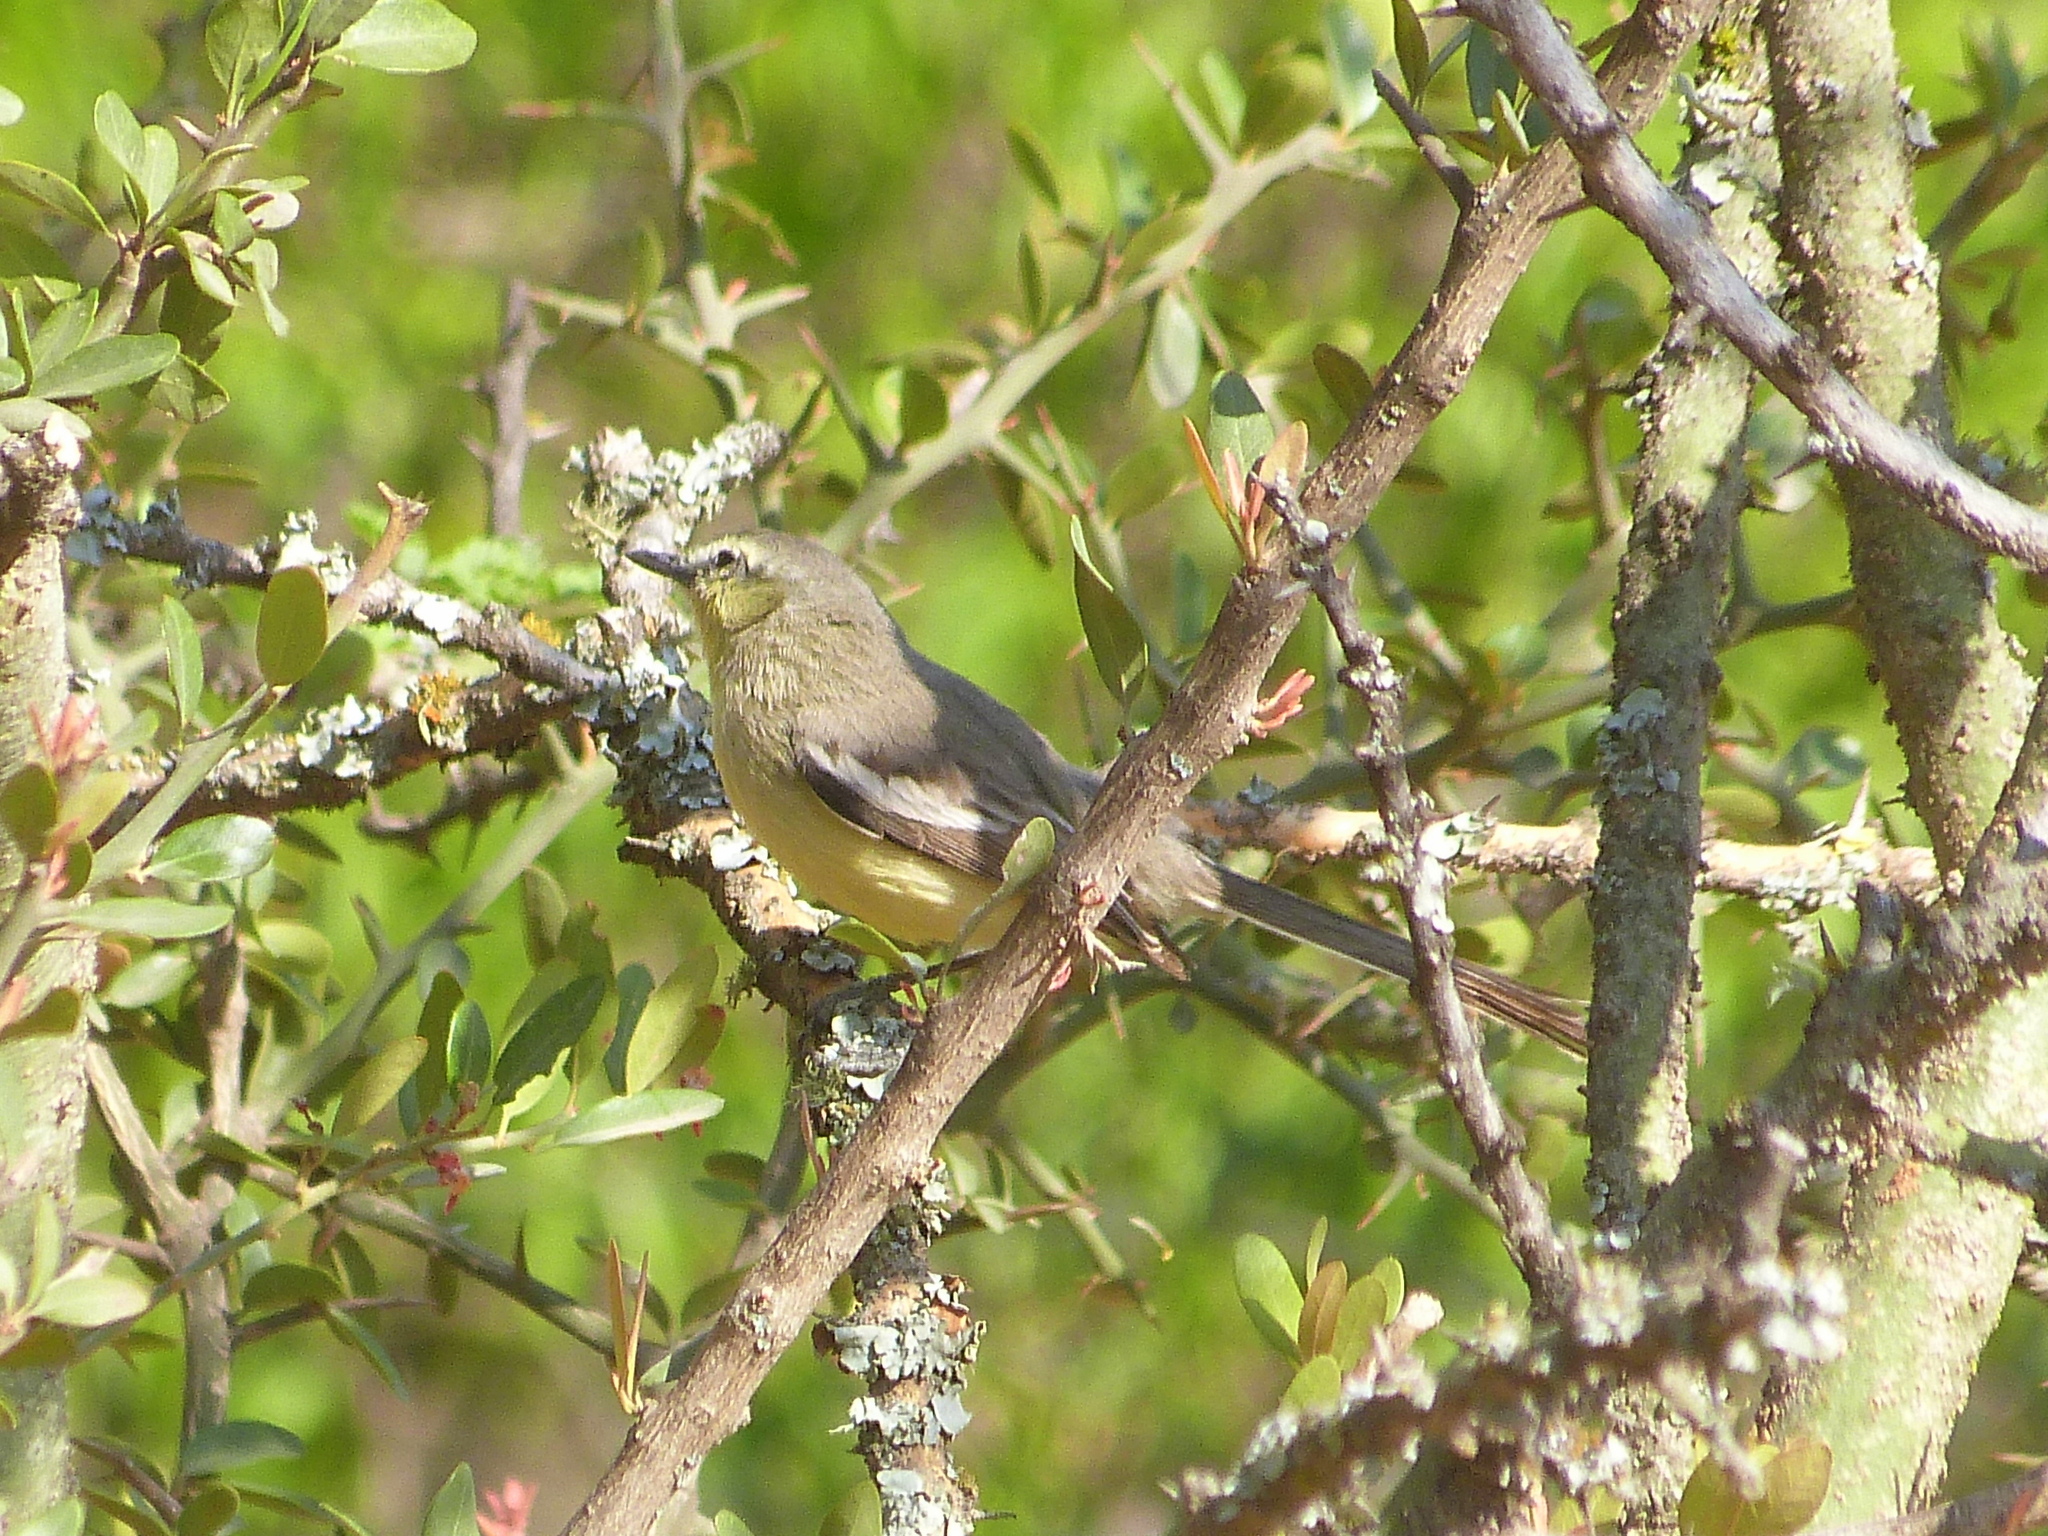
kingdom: Animalia
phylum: Chordata
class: Aves
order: Passeriformes
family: Tyrannidae
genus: Stigmatura
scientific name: Stigmatura budytoides
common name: Greater wagtail-tyrant
